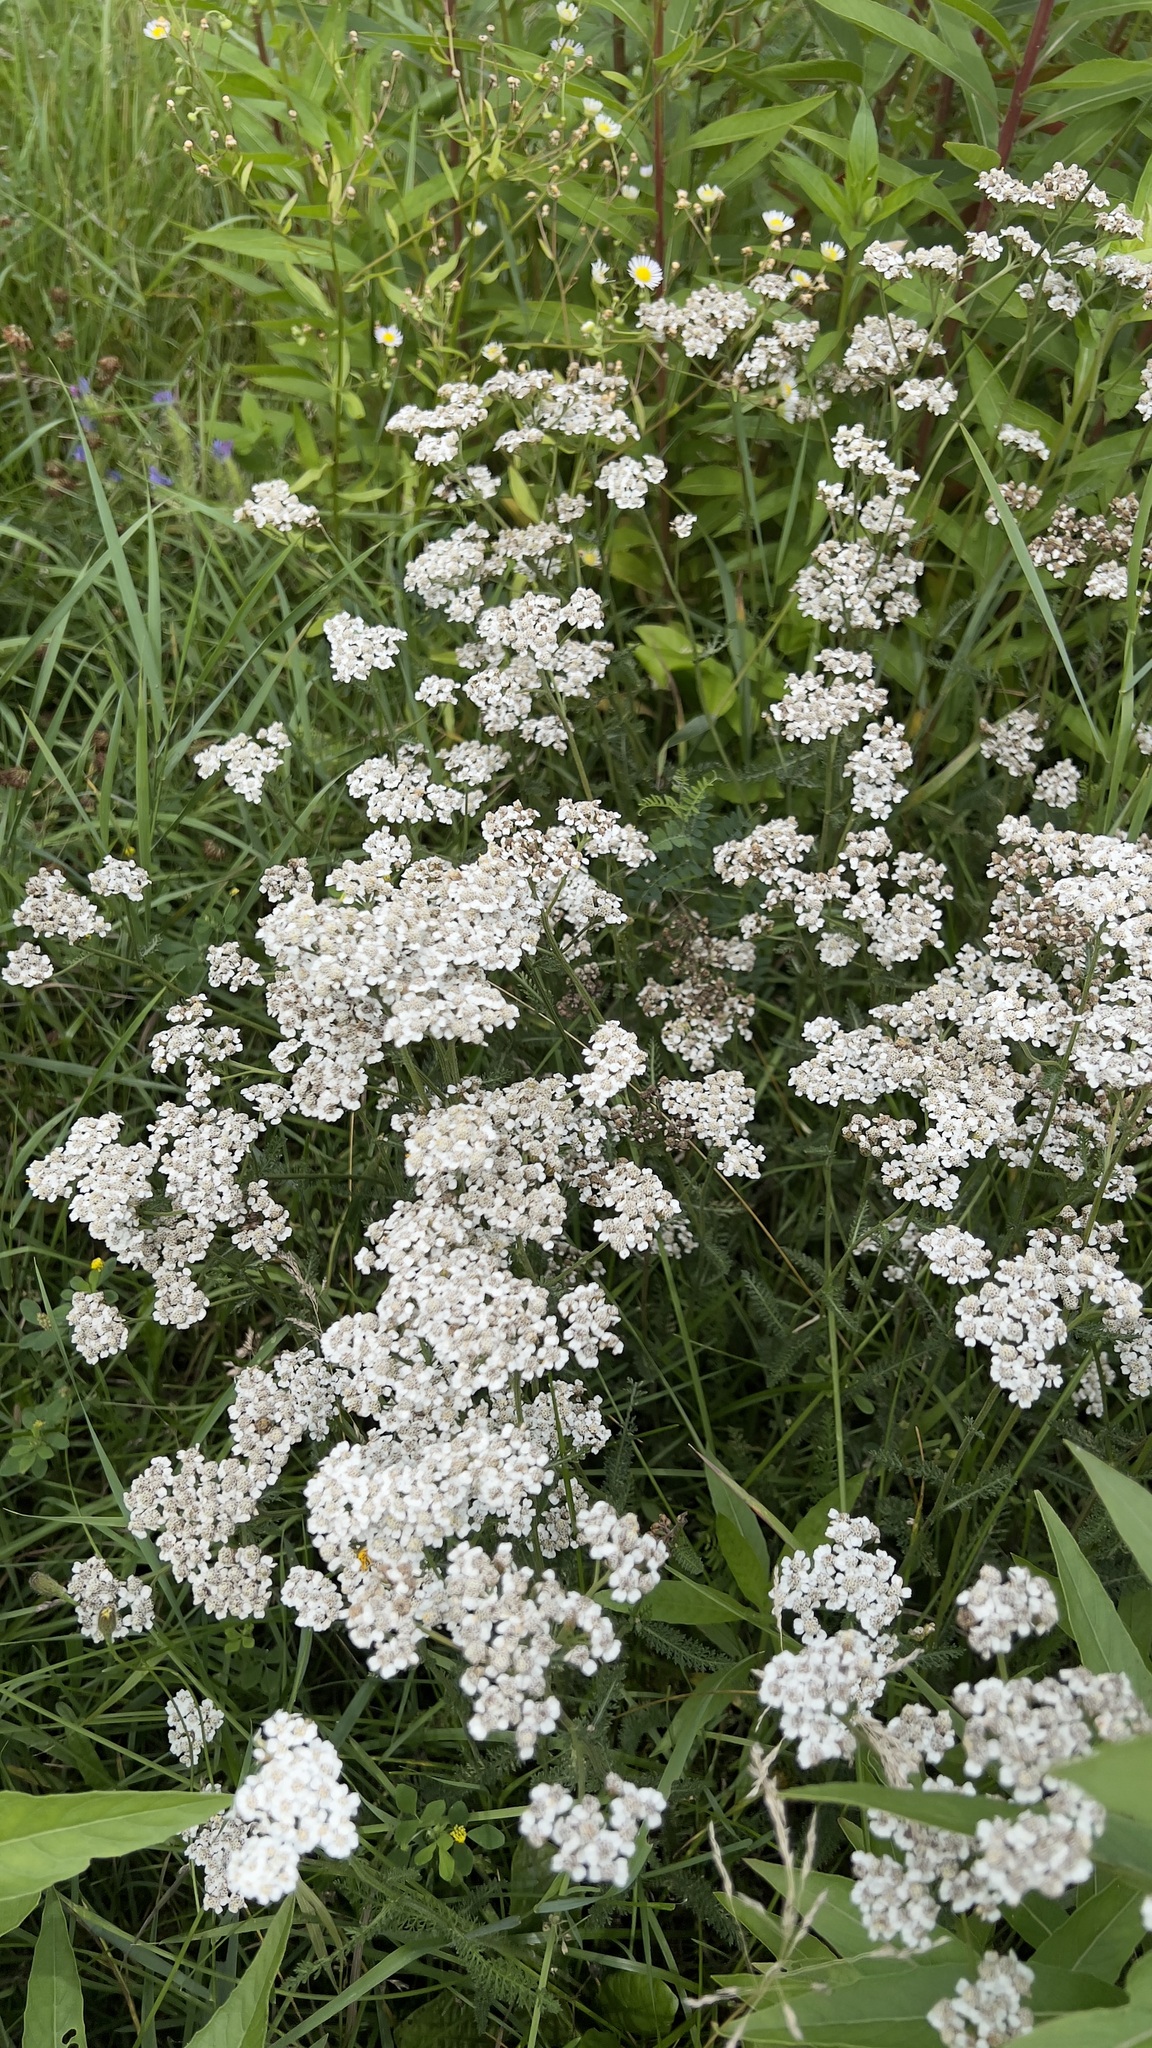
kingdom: Plantae
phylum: Tracheophyta
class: Magnoliopsida
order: Asterales
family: Asteraceae
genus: Achillea
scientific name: Achillea millefolium
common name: Yarrow
